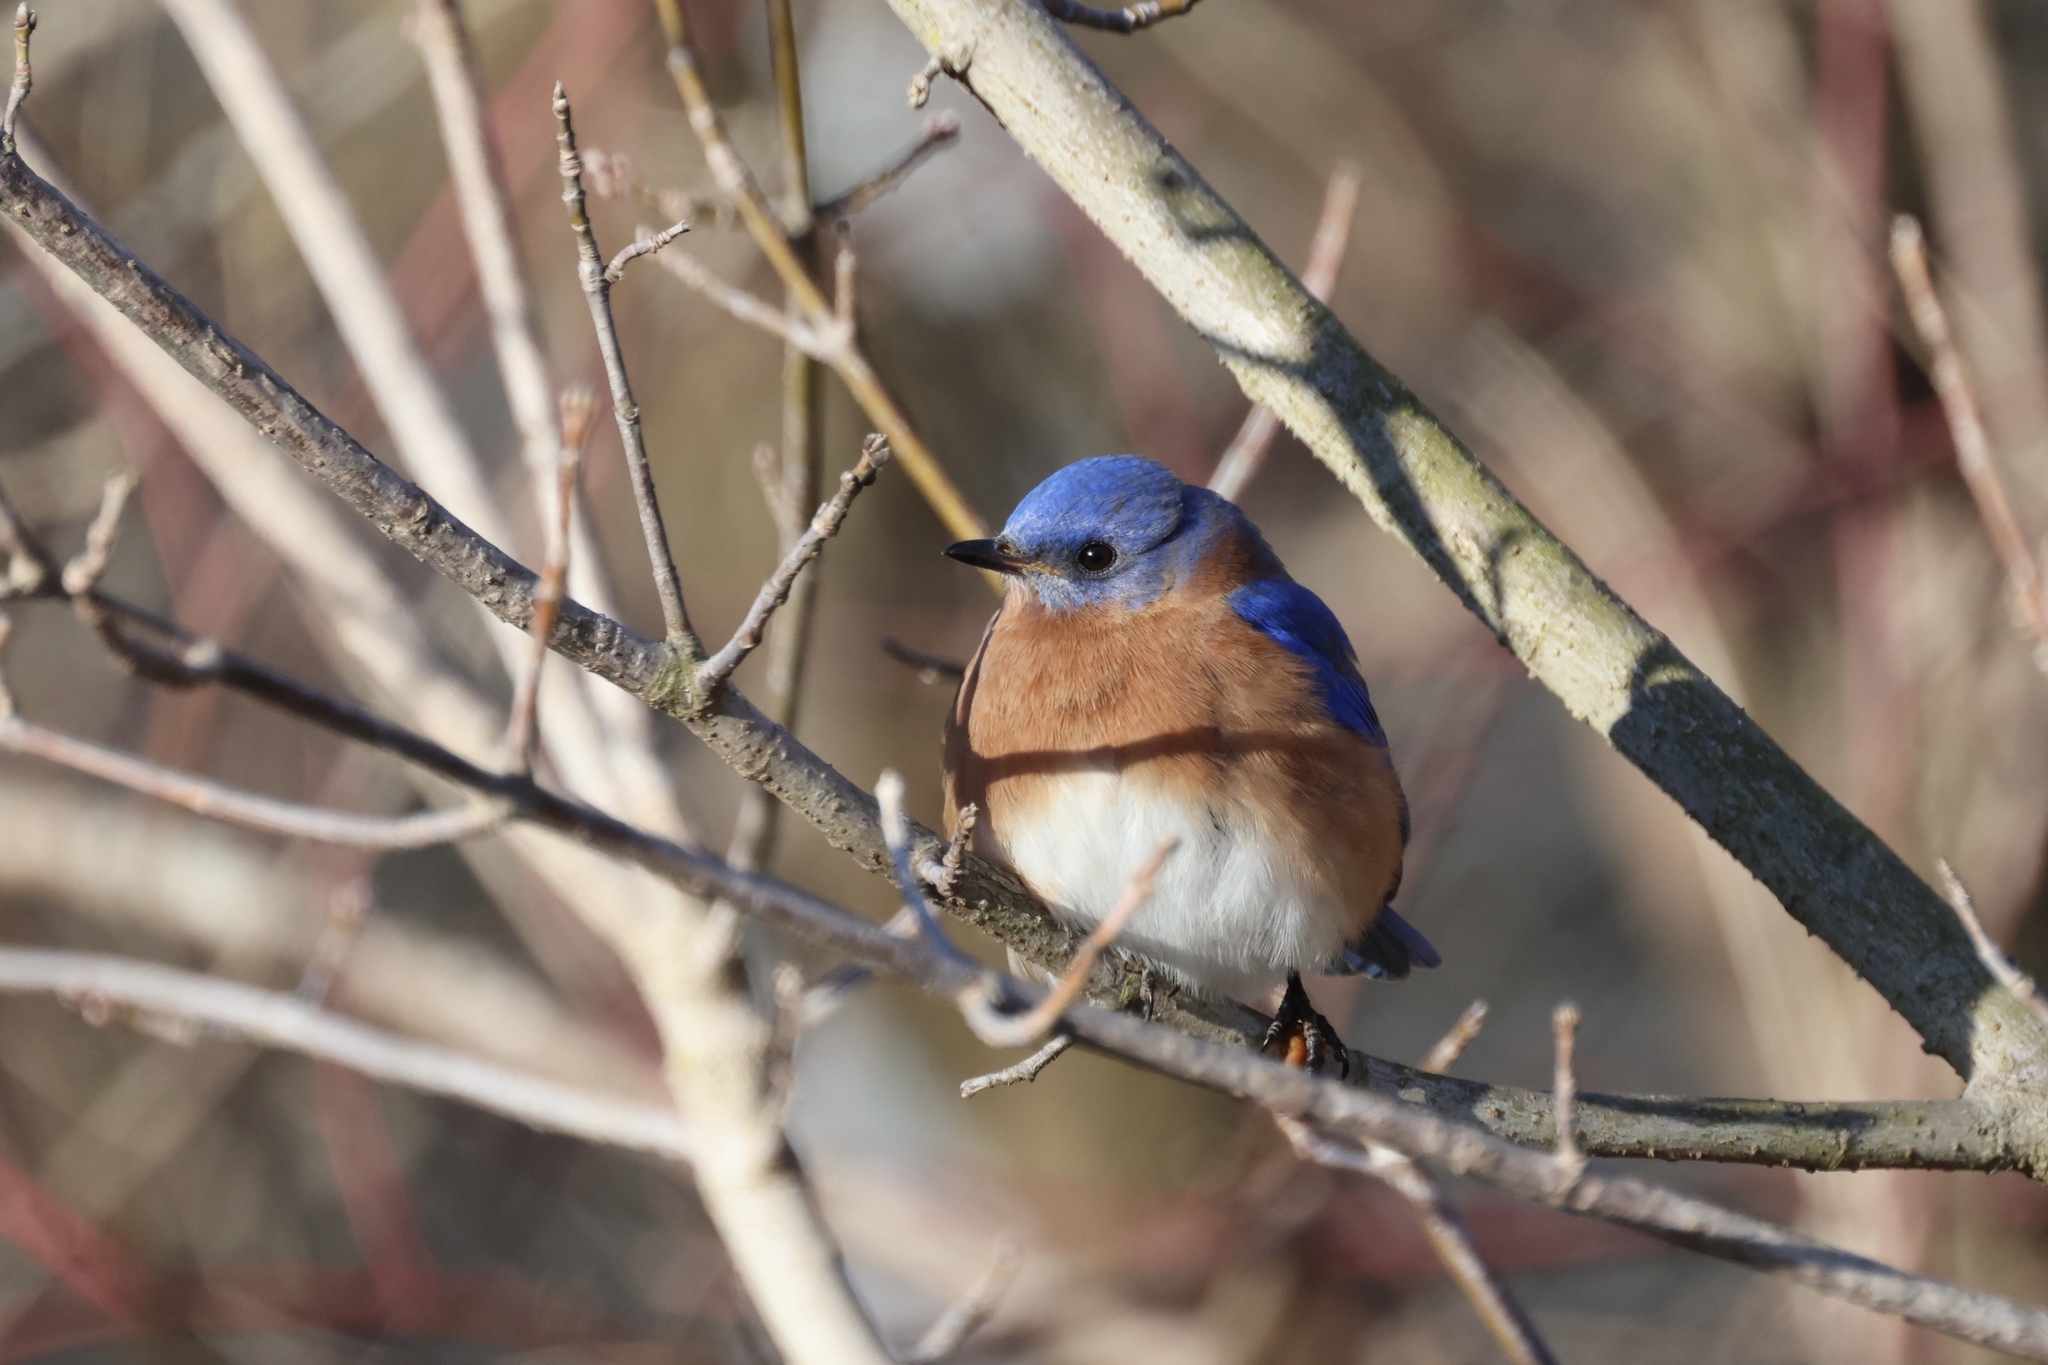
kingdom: Animalia
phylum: Chordata
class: Aves
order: Passeriformes
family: Turdidae
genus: Sialia
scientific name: Sialia sialis
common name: Eastern bluebird
